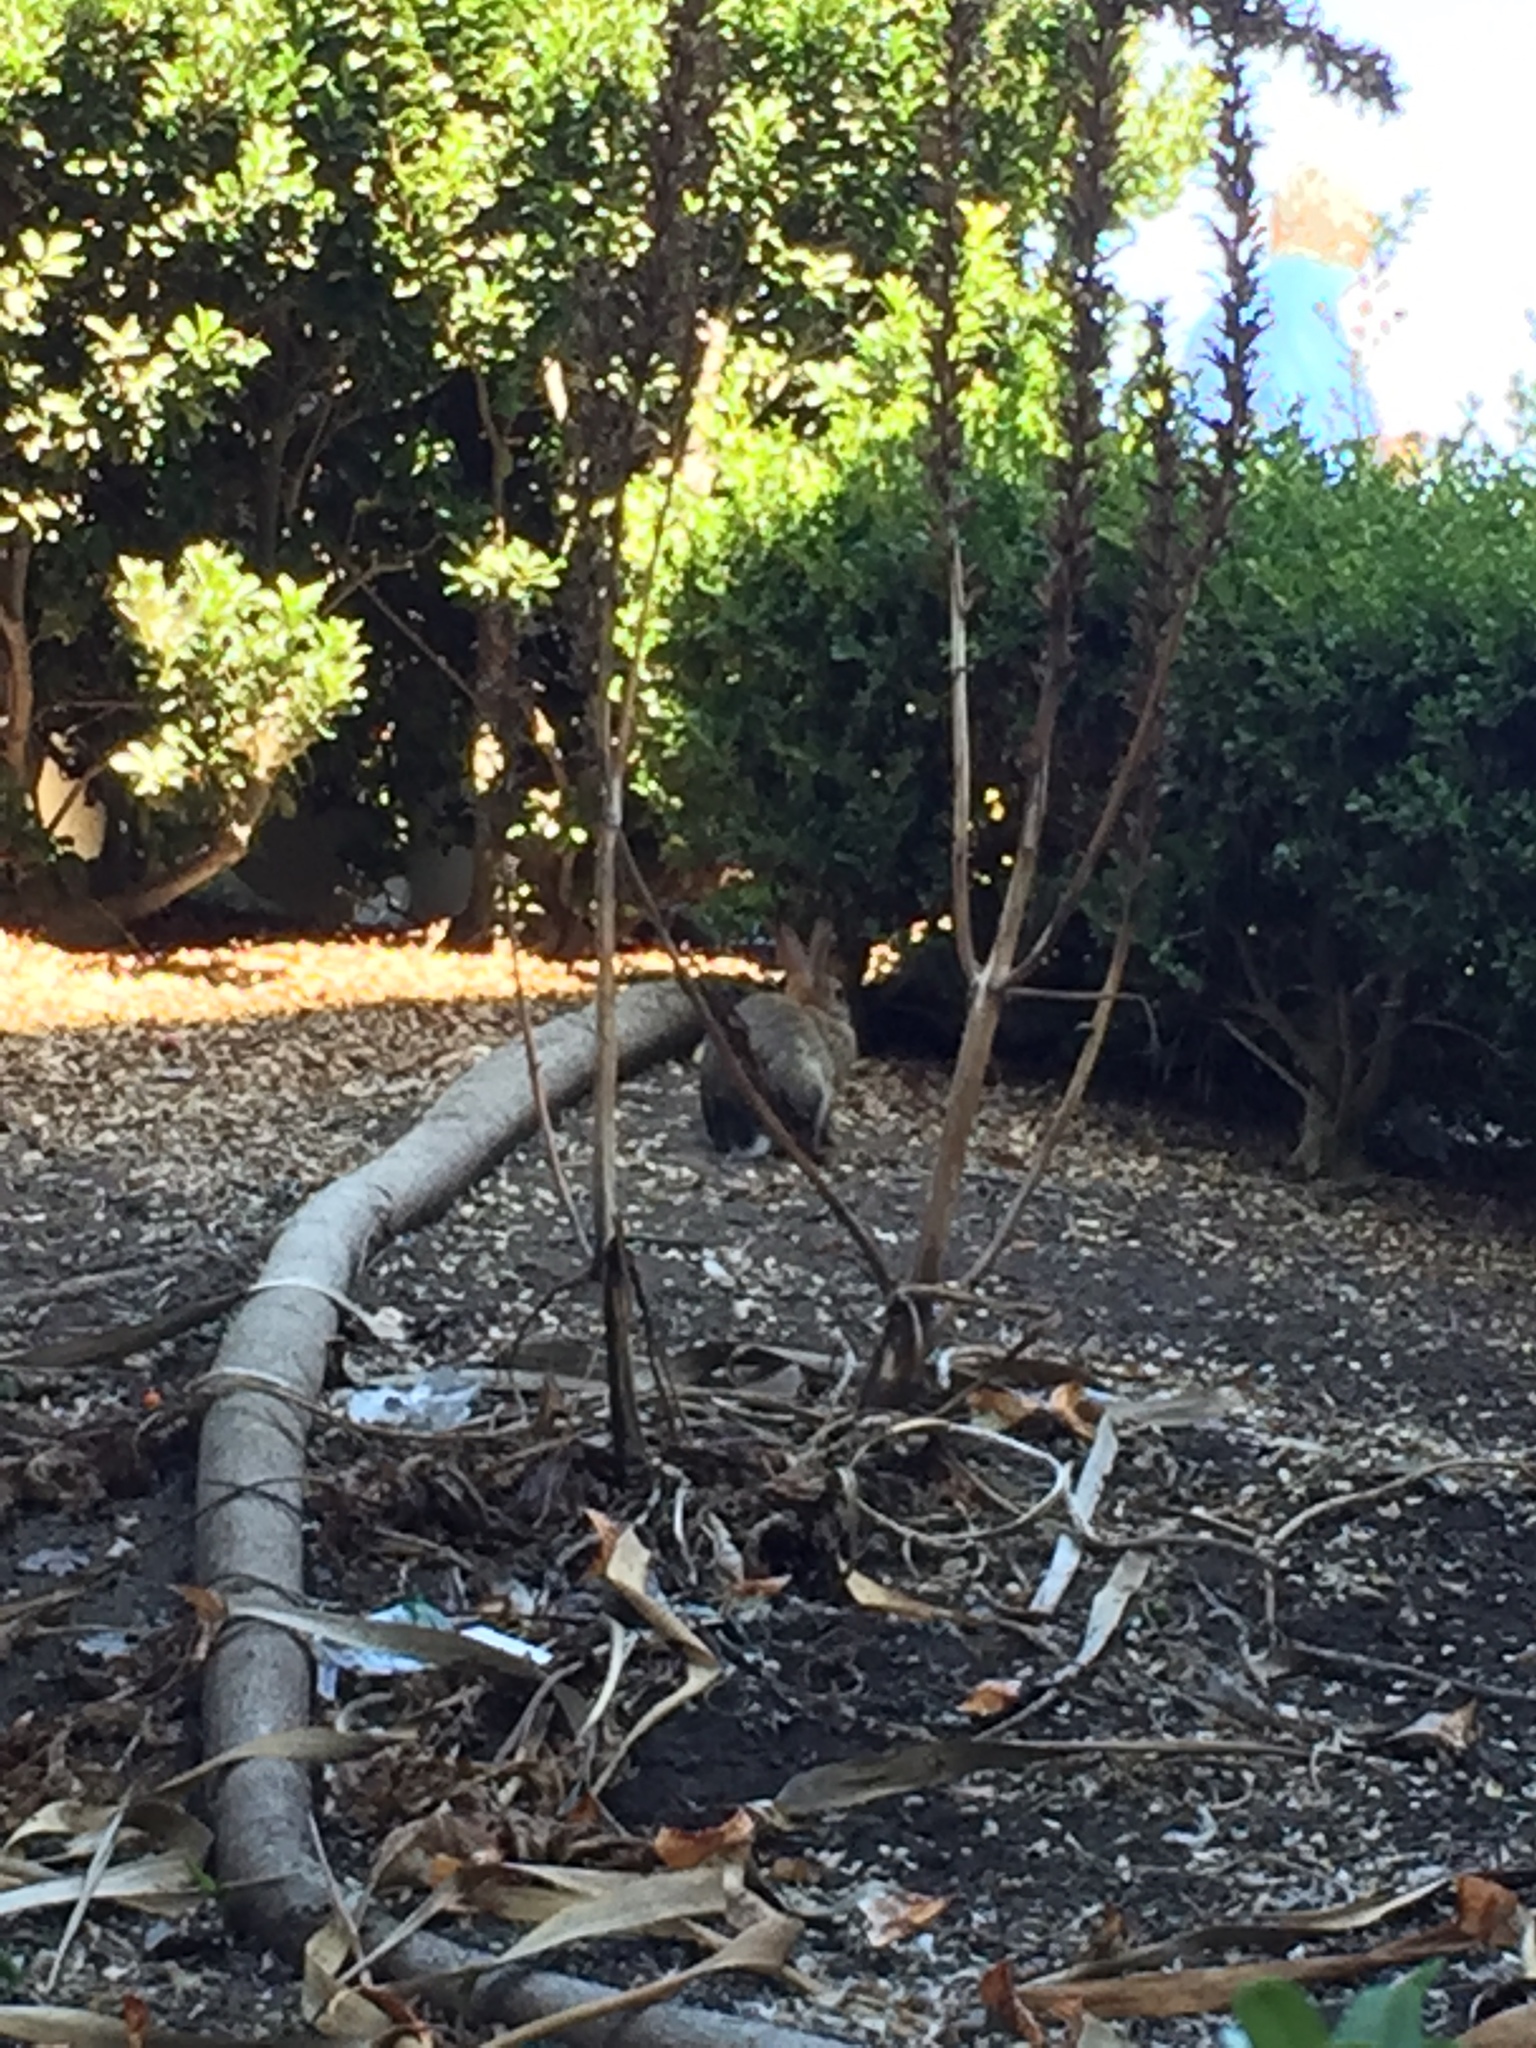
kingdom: Animalia
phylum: Chordata
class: Mammalia
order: Lagomorpha
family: Leporidae
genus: Sylvilagus
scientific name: Sylvilagus audubonii
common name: Desert cottontail
